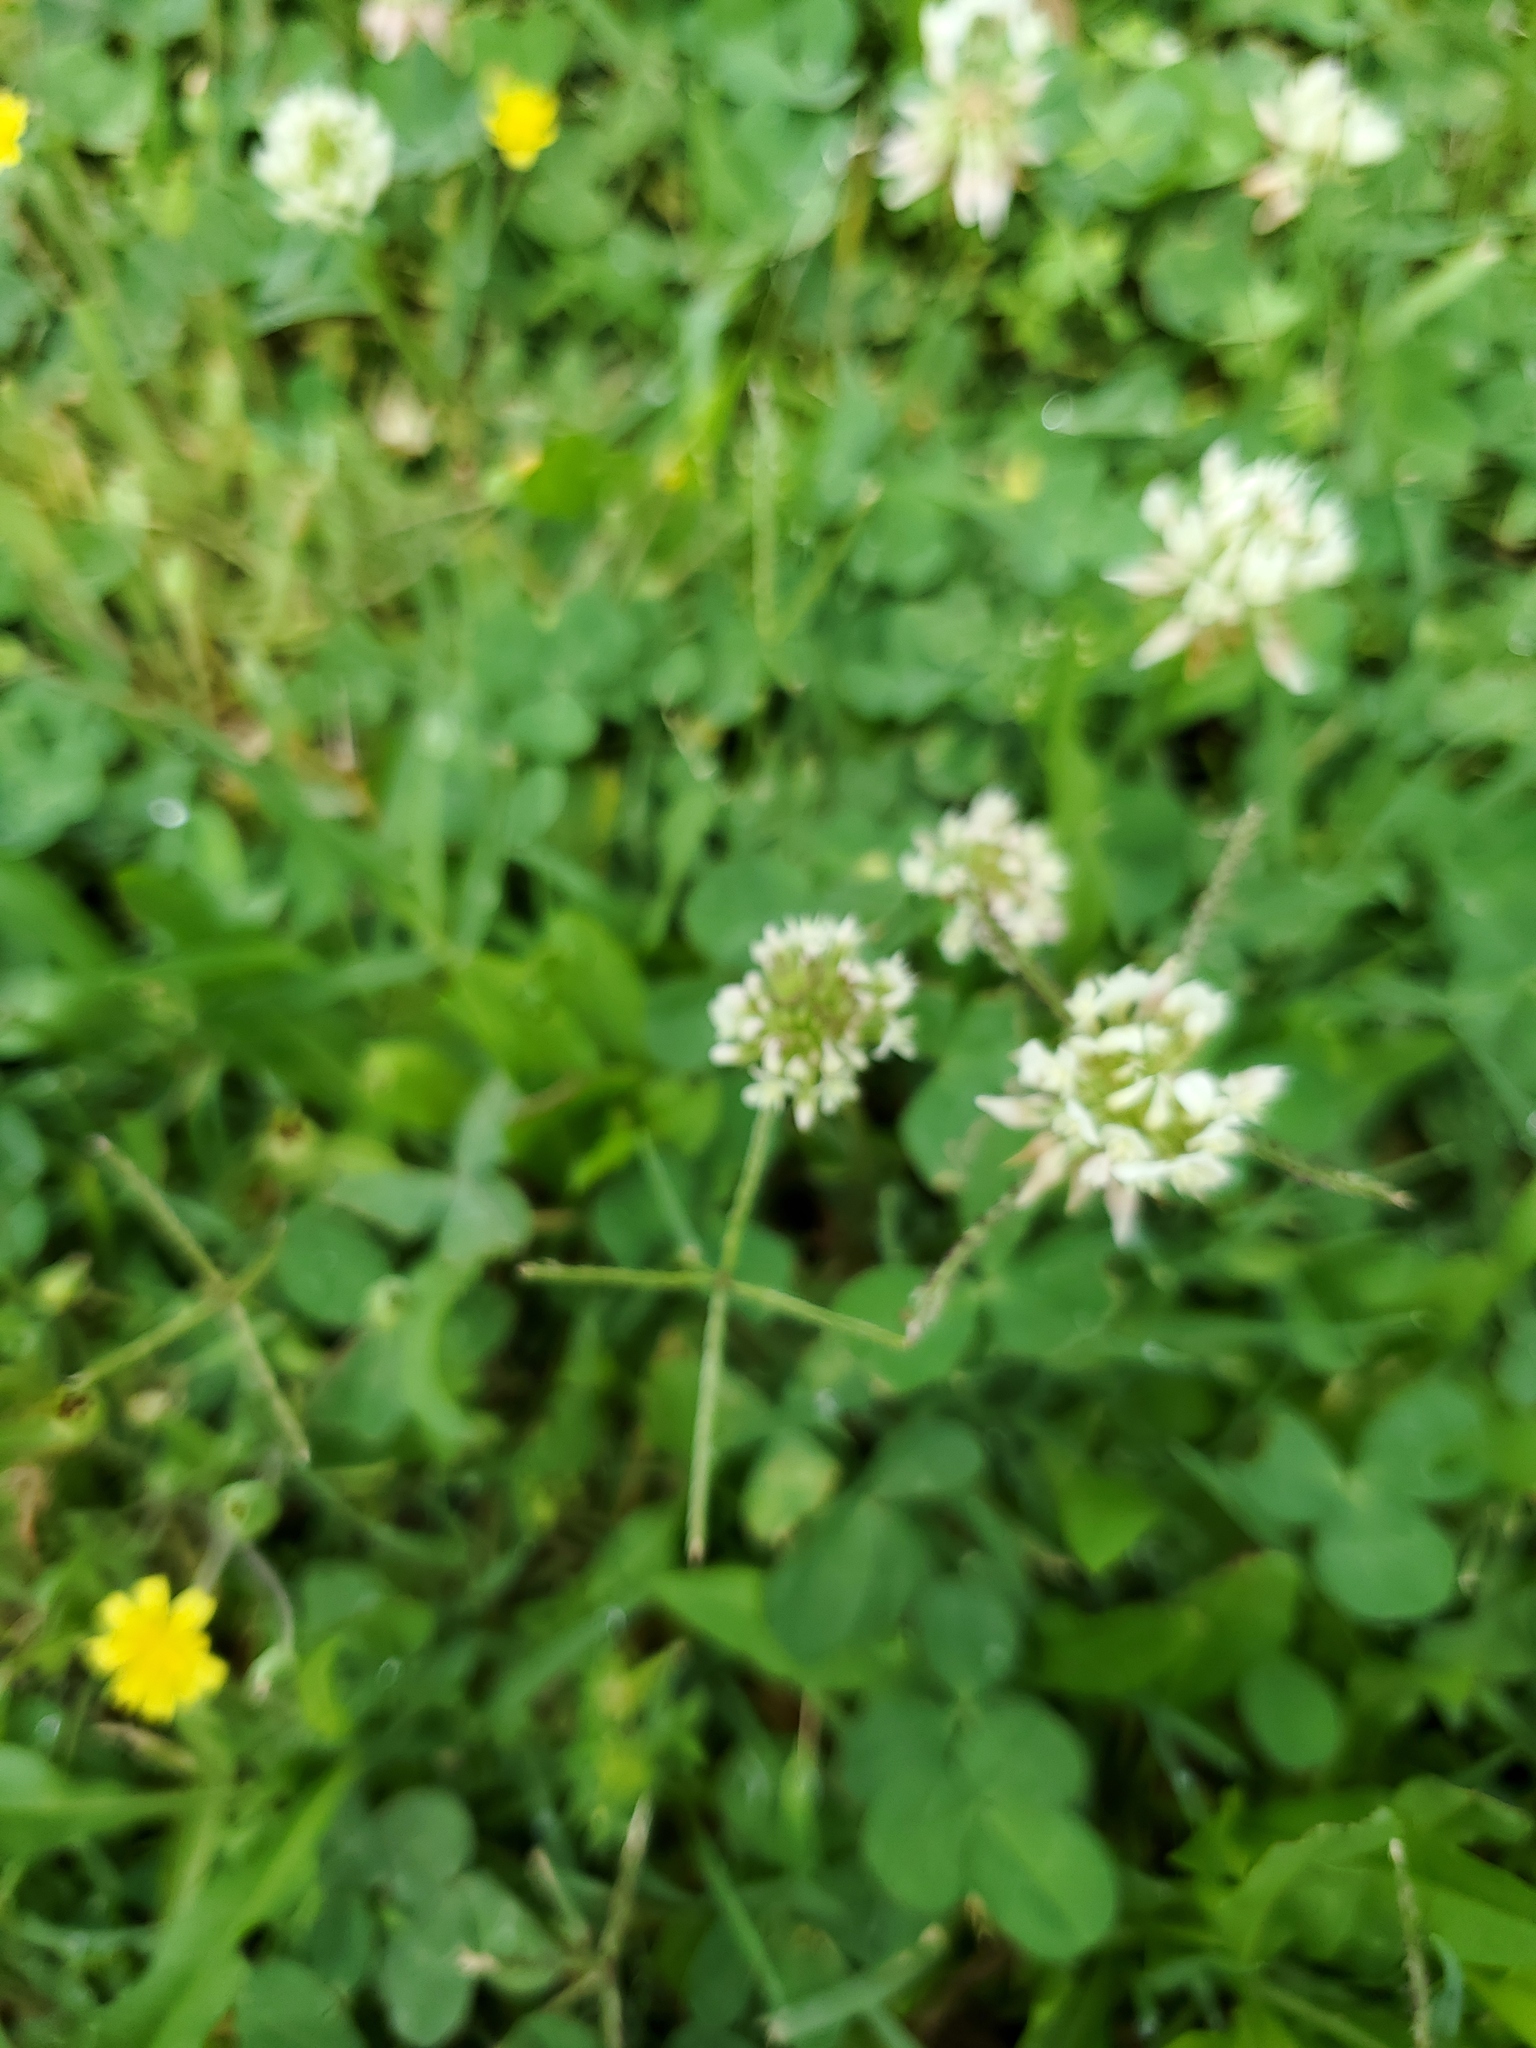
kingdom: Plantae
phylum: Tracheophyta
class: Magnoliopsida
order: Fabales
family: Fabaceae
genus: Trifolium
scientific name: Trifolium repens
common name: White clover
